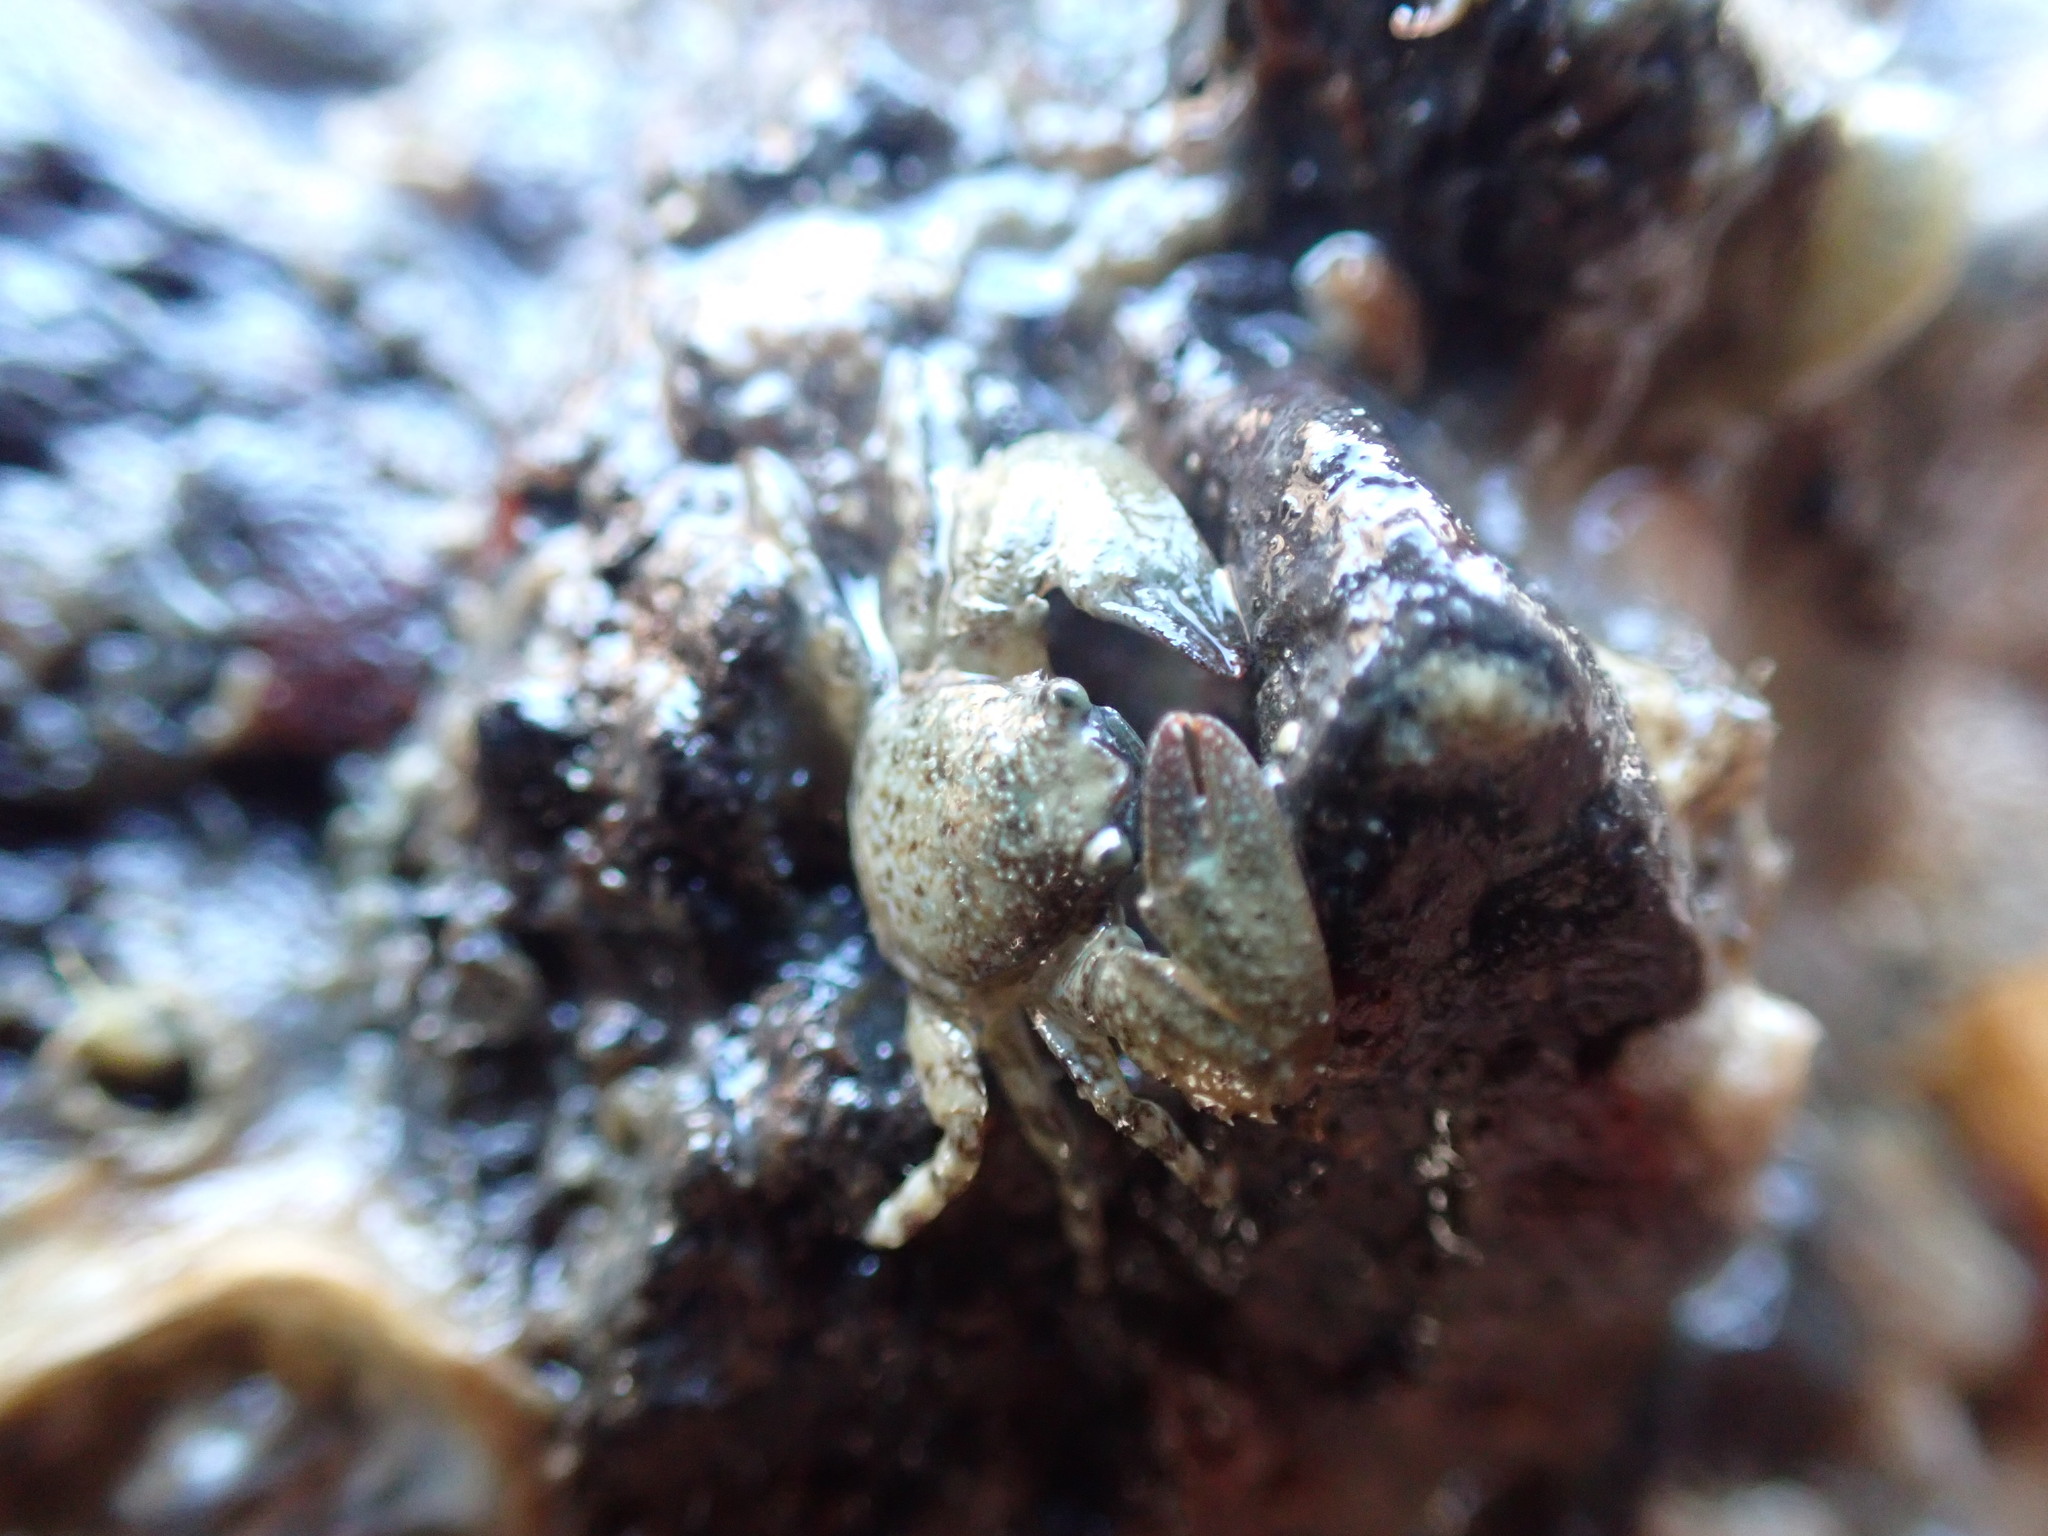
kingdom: Animalia
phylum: Arthropoda
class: Malacostraca
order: Decapoda
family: Porcellanidae
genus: Petrolisthes
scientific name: Petrolisthes elongatus
